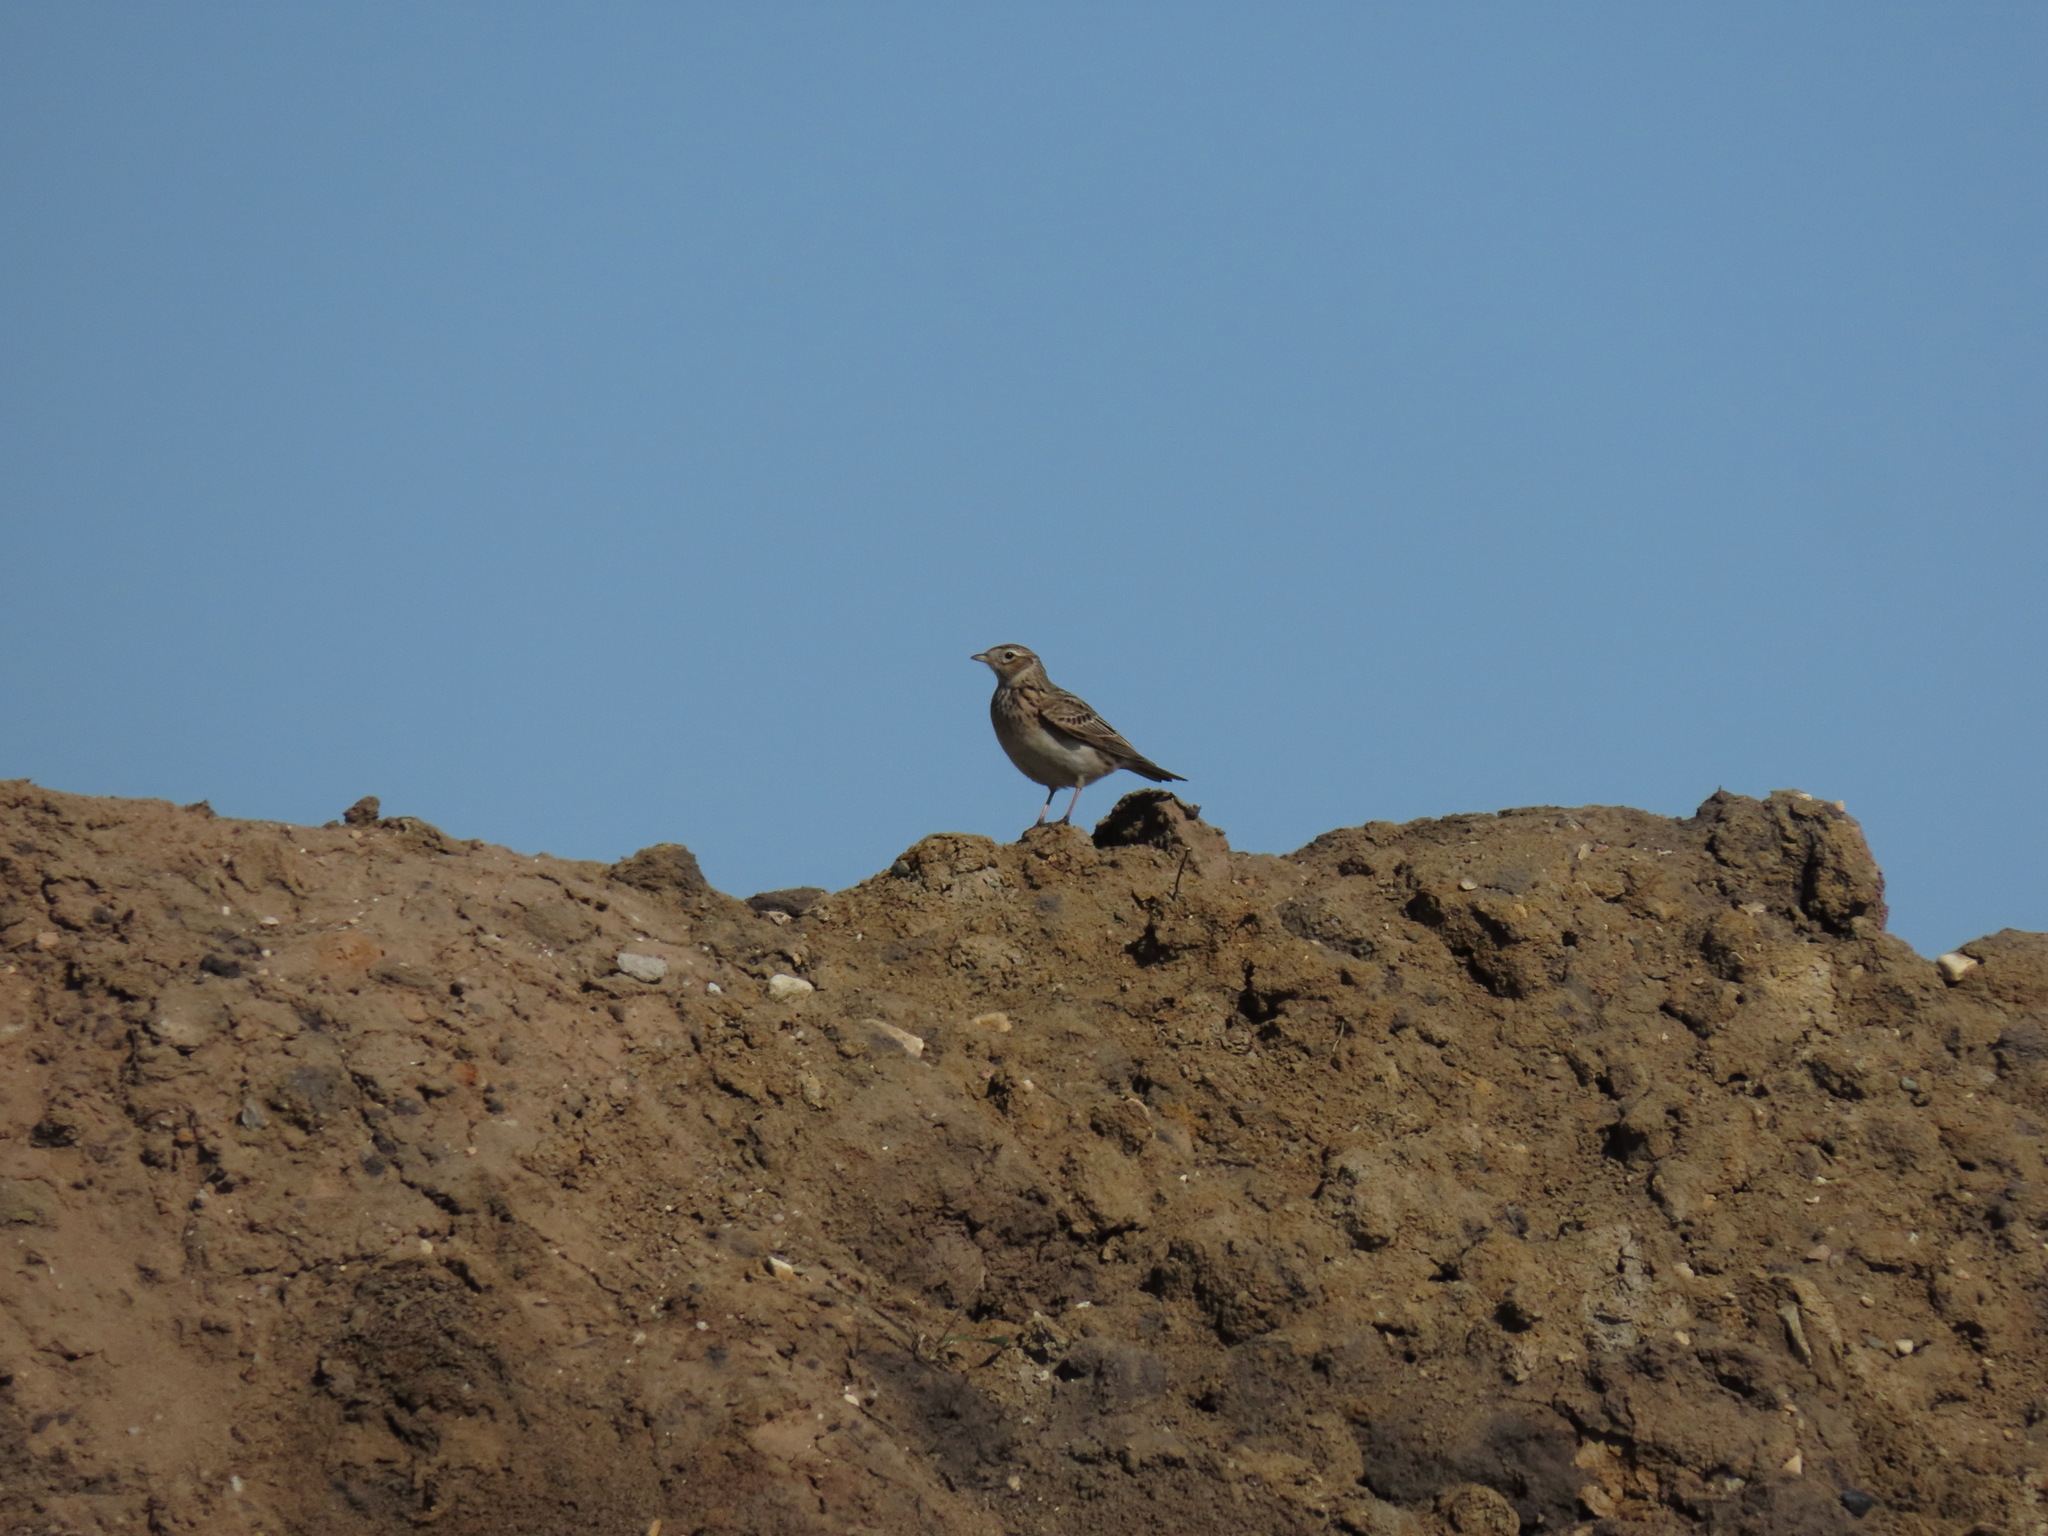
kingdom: Animalia
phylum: Chordata
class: Aves
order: Passeriformes
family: Alaudidae
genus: Alauda
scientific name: Alauda arvensis
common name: Eurasian skylark
